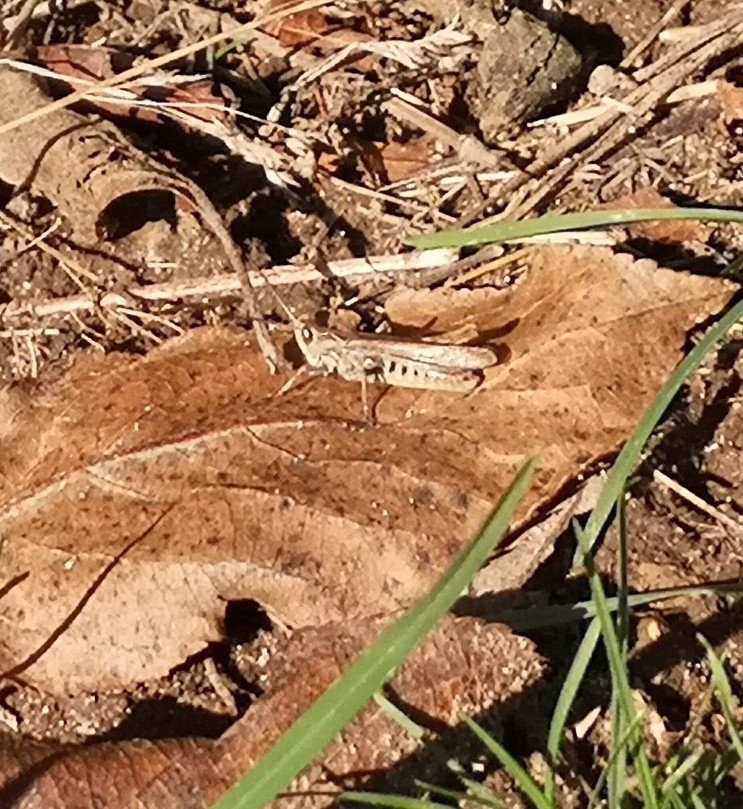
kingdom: Animalia
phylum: Arthropoda
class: Insecta
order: Orthoptera
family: Acrididae
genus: Chorthippus
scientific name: Chorthippus brunneus
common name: Field grasshopper
